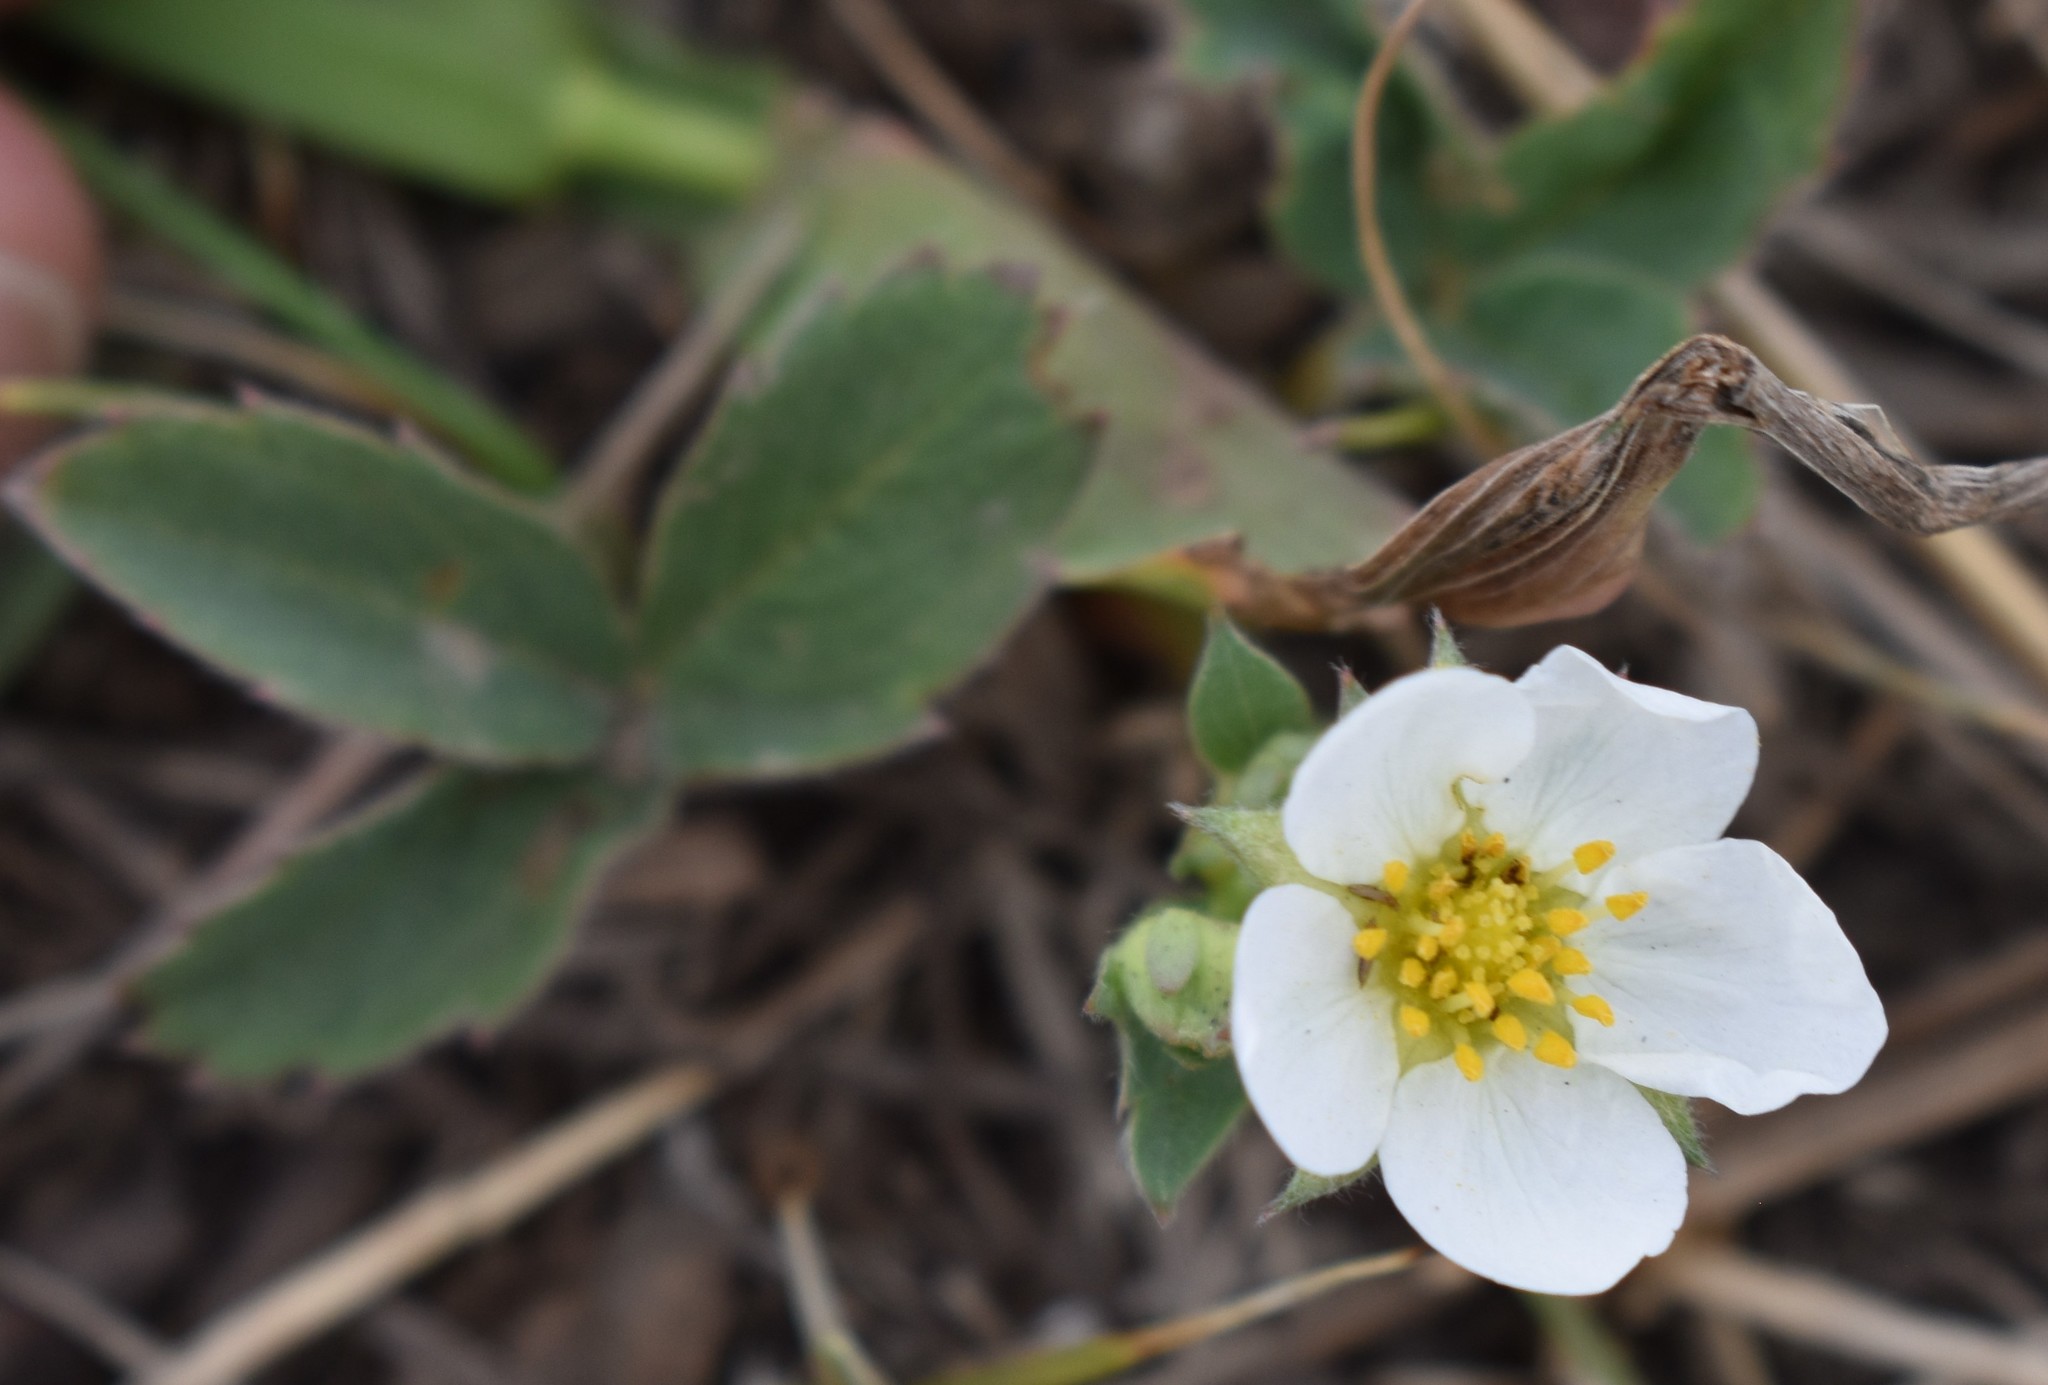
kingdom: Plantae
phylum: Tracheophyta
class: Magnoliopsida
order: Rosales
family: Rosaceae
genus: Fragaria
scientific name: Fragaria virginiana
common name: Thickleaved wild strawberry
